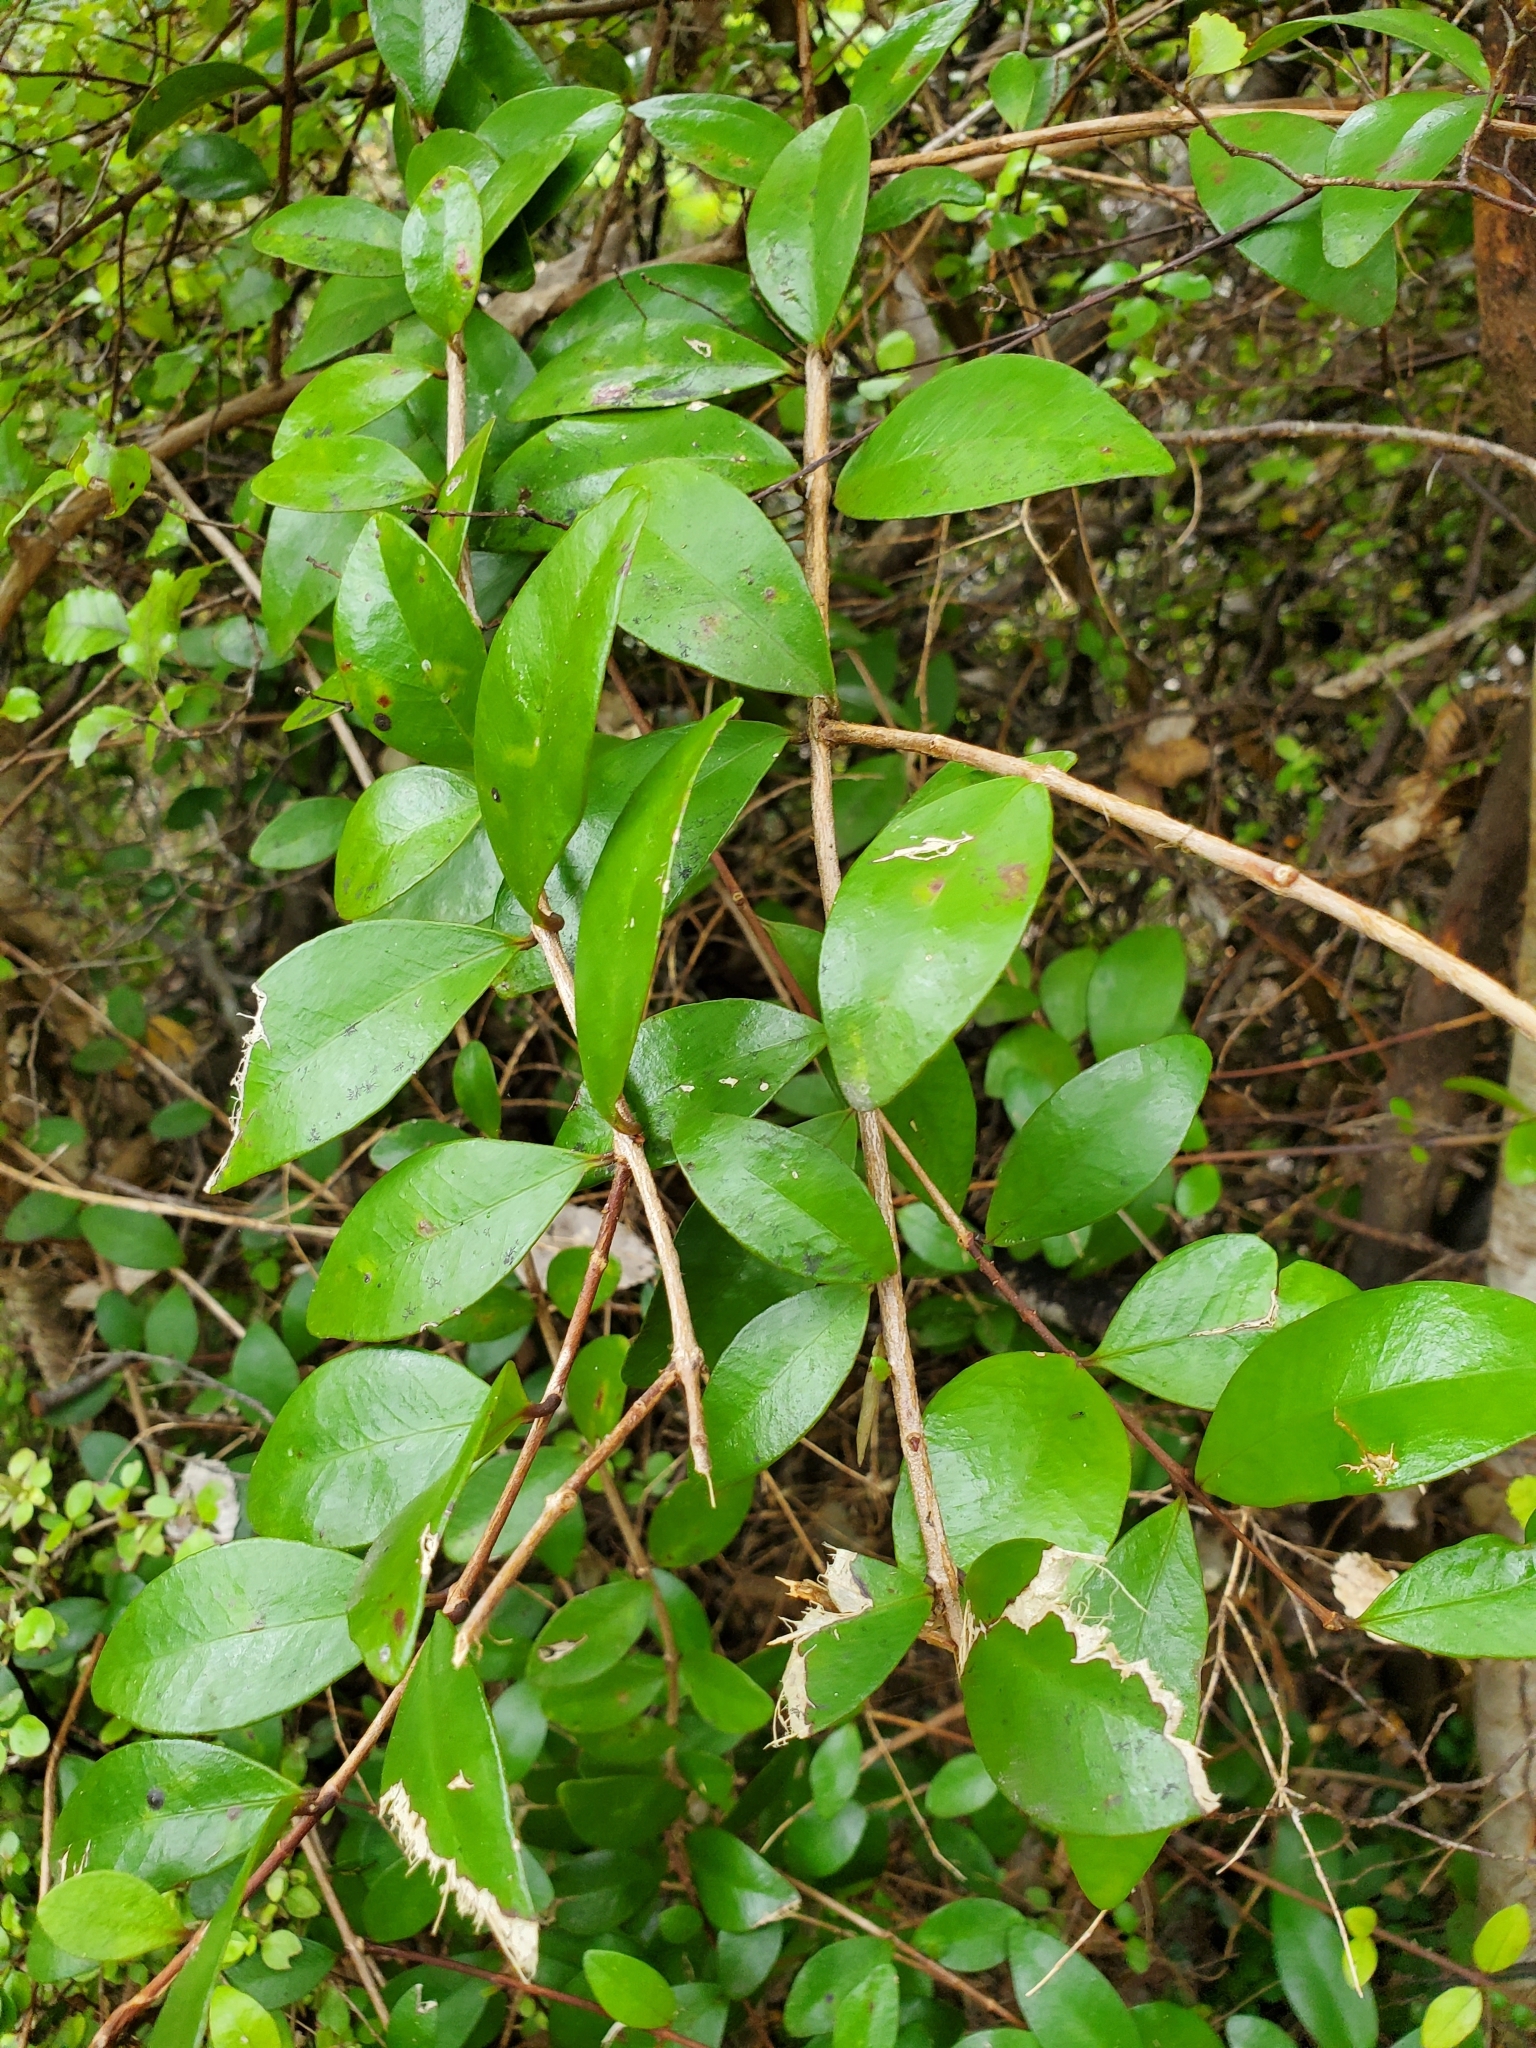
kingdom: Plantae
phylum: Tracheophyta
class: Magnoliopsida
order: Myrtales
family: Myrtaceae
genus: Metrosideros
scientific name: Metrosideros fulgens
